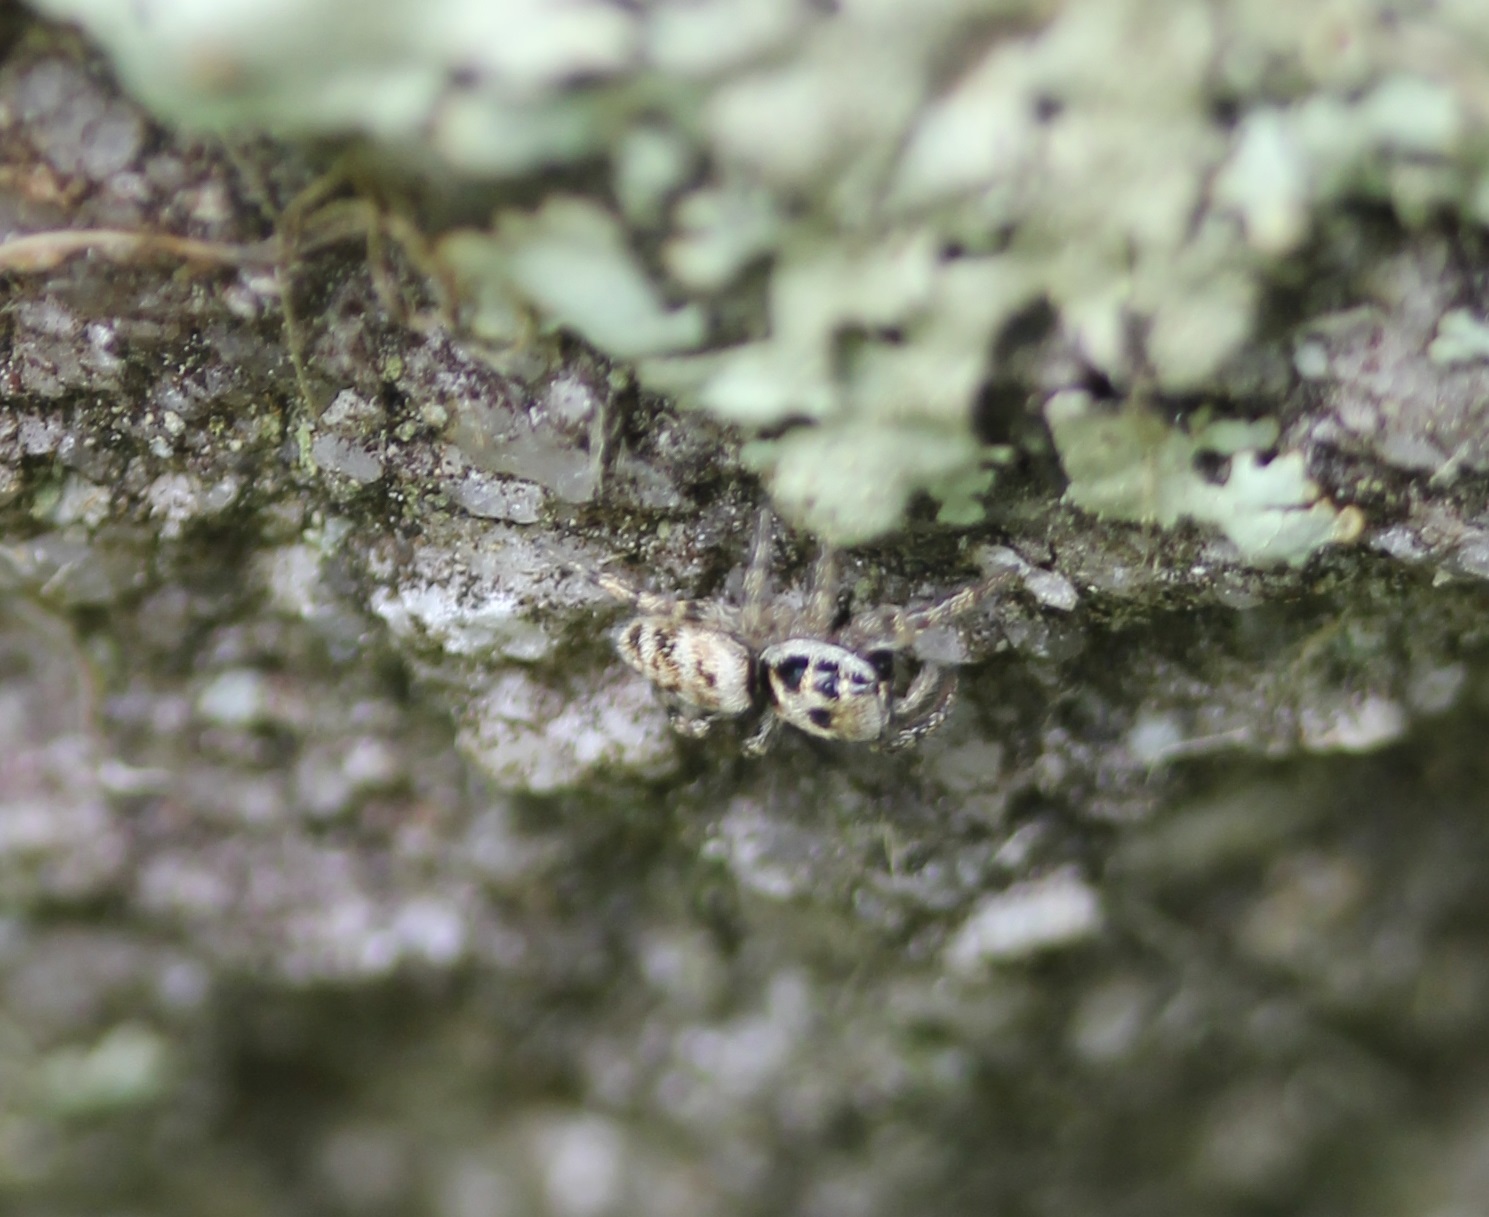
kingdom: Animalia
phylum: Arthropoda
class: Arachnida
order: Araneae
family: Salticidae
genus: Salticus
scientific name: Salticus scenicus
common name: Zebra jumper
